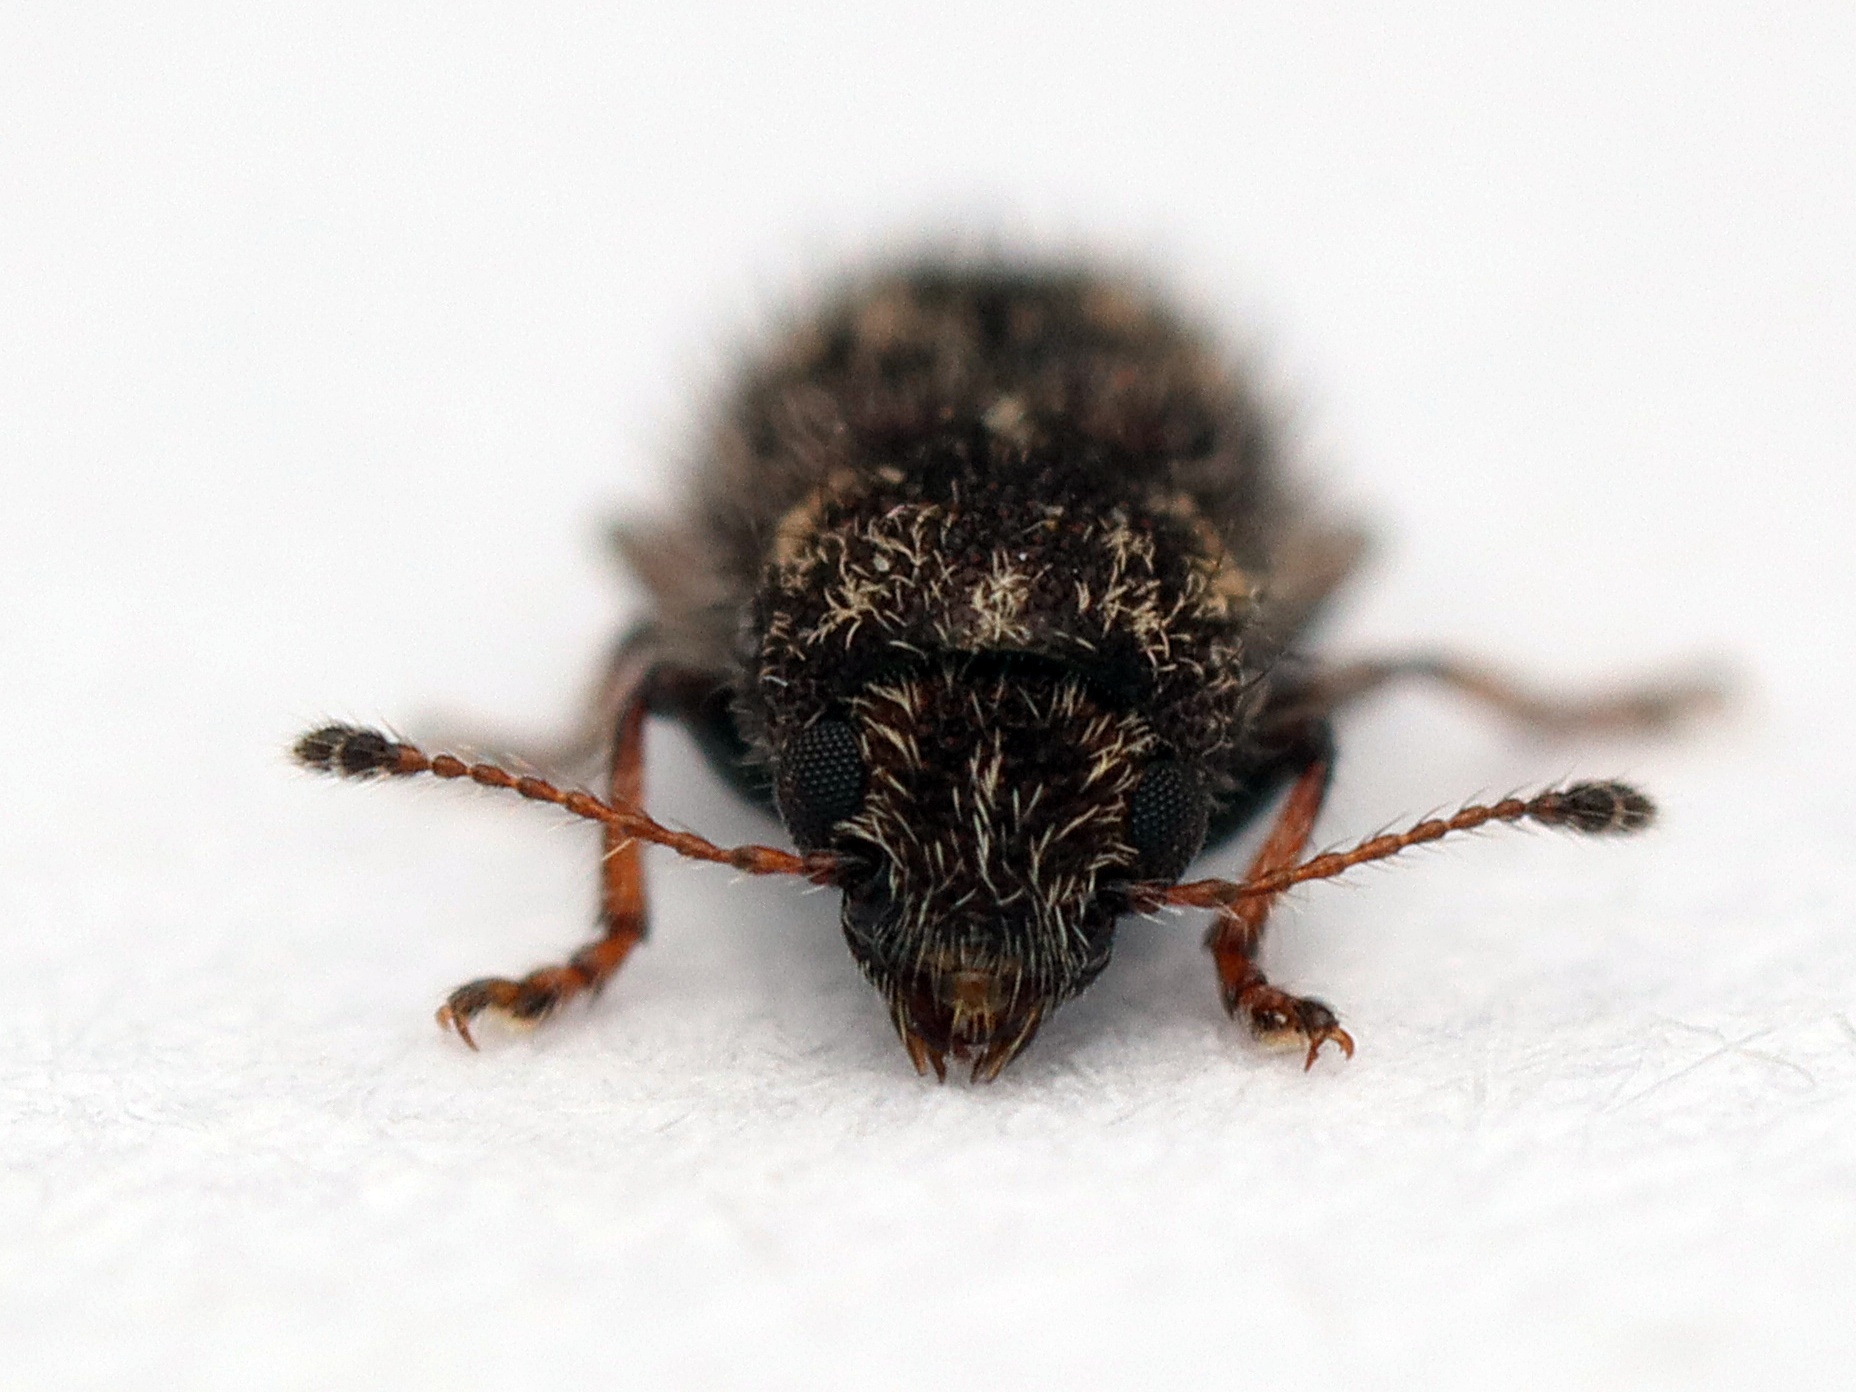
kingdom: Animalia
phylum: Arthropoda
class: Insecta
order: Coleoptera
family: Anthribidae
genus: Dasyanthribus
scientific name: Dasyanthribus purpureus
